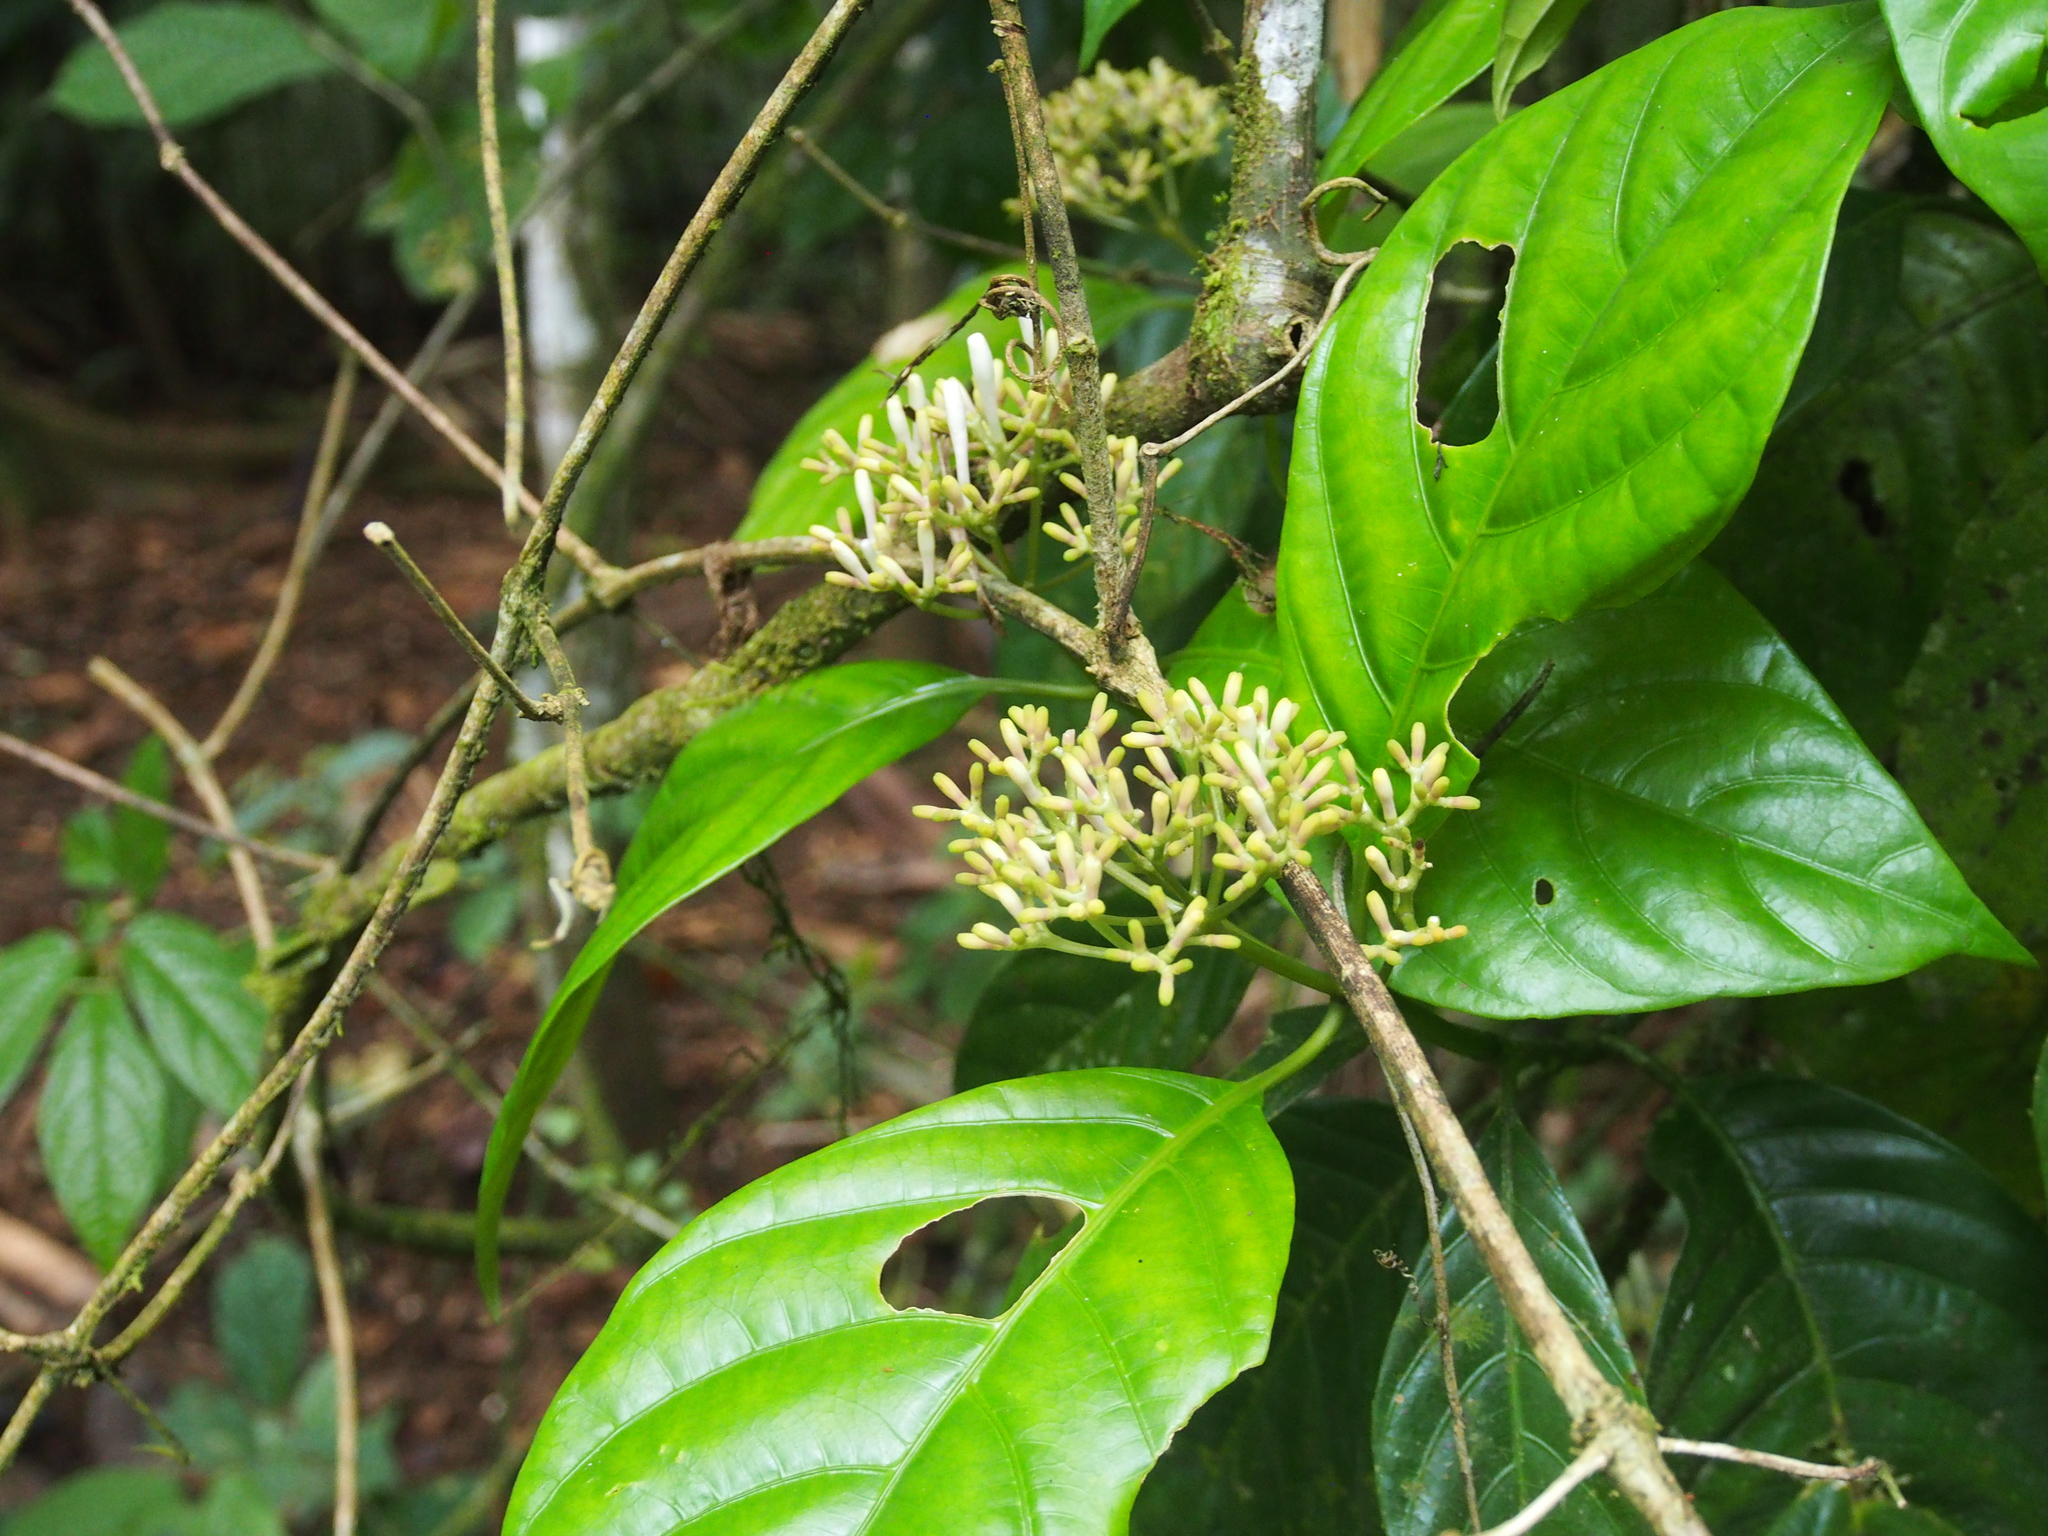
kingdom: Plantae
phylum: Tracheophyta
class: Magnoliopsida
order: Gentianales
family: Rubiaceae
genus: Palicourea
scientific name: Palicourea calidicola
